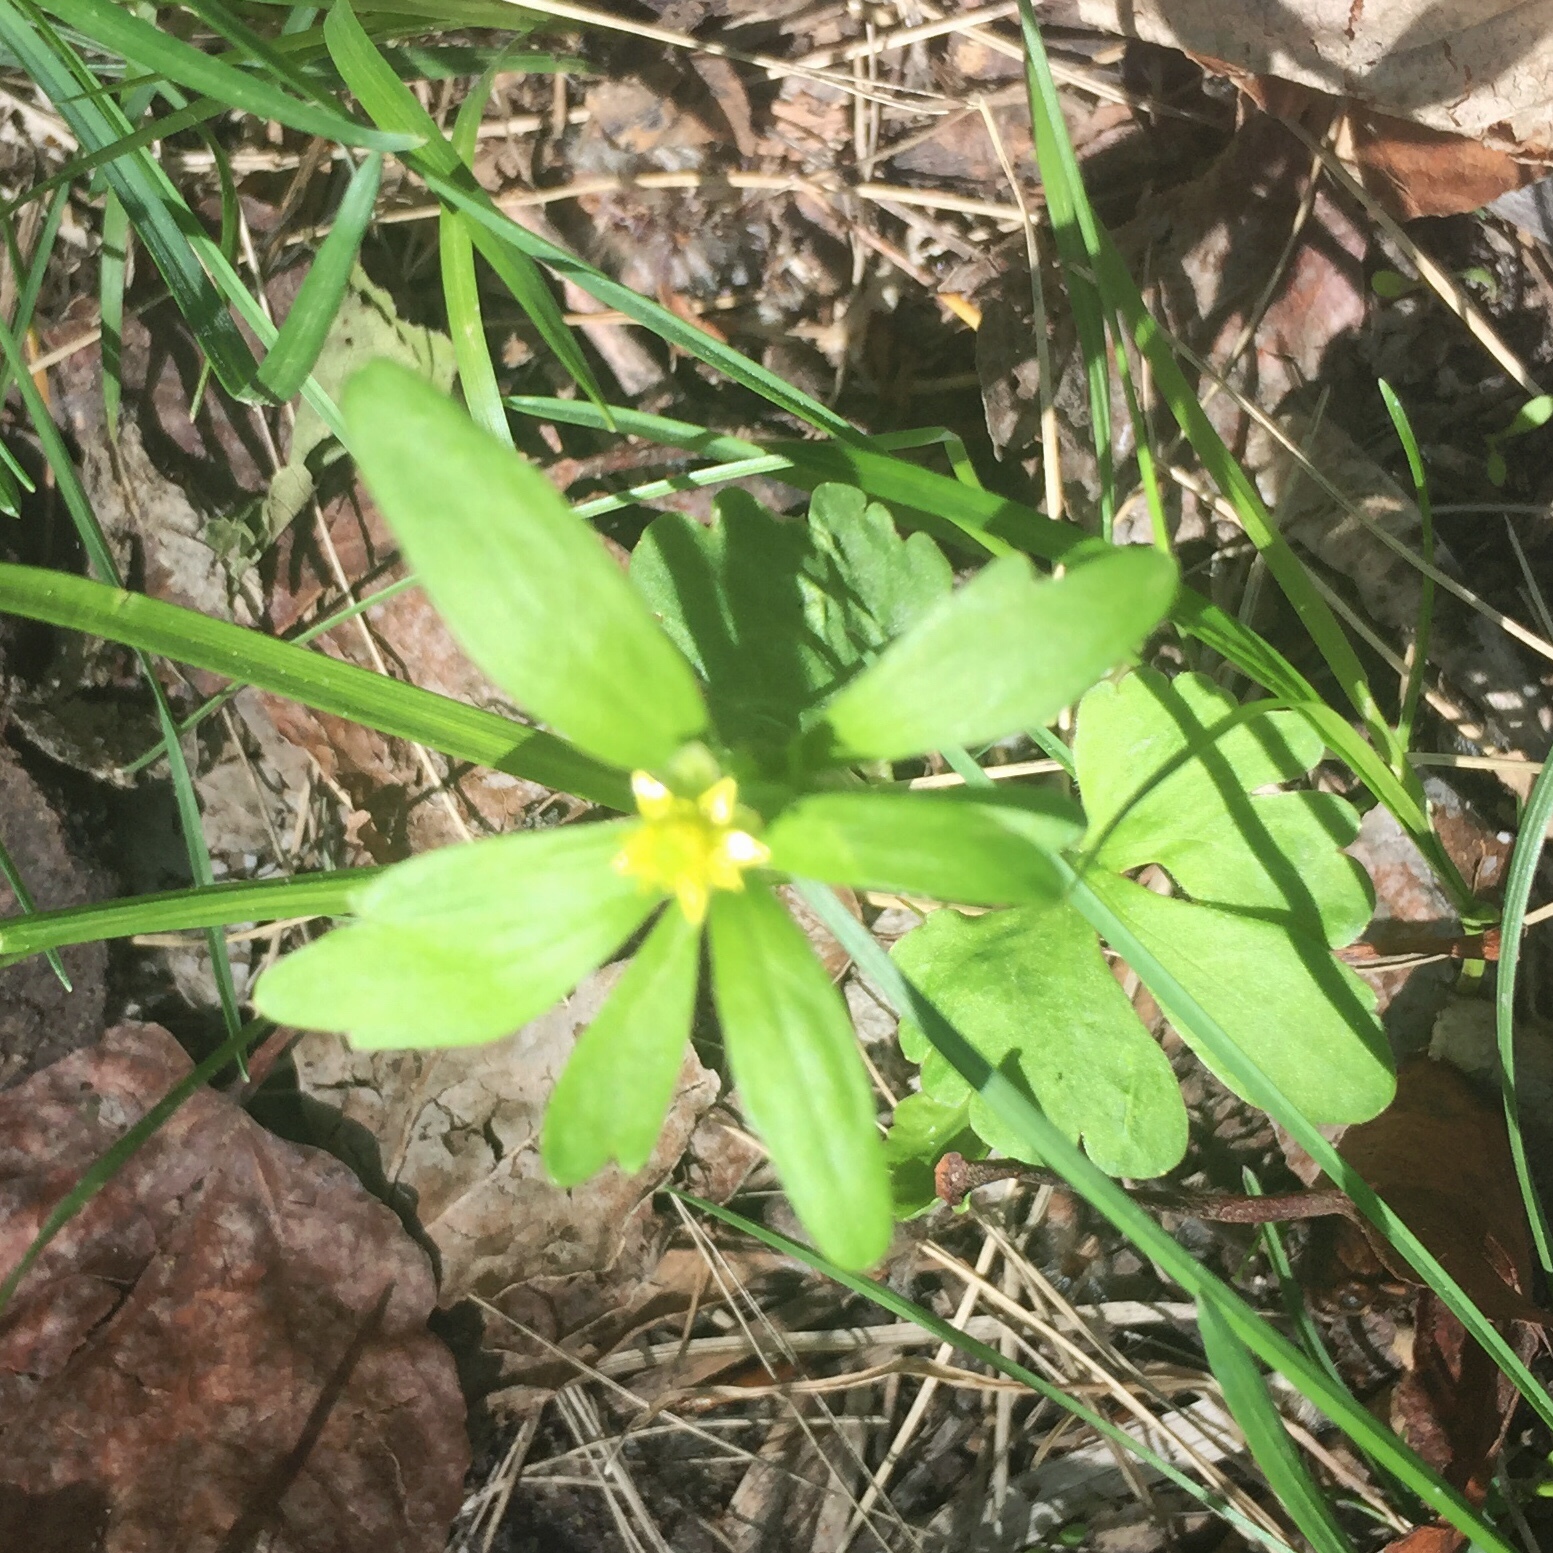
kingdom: Plantae
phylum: Tracheophyta
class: Magnoliopsida
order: Ranunculales
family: Ranunculaceae
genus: Ranunculus
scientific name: Ranunculus abortivus
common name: Early wood buttercup
